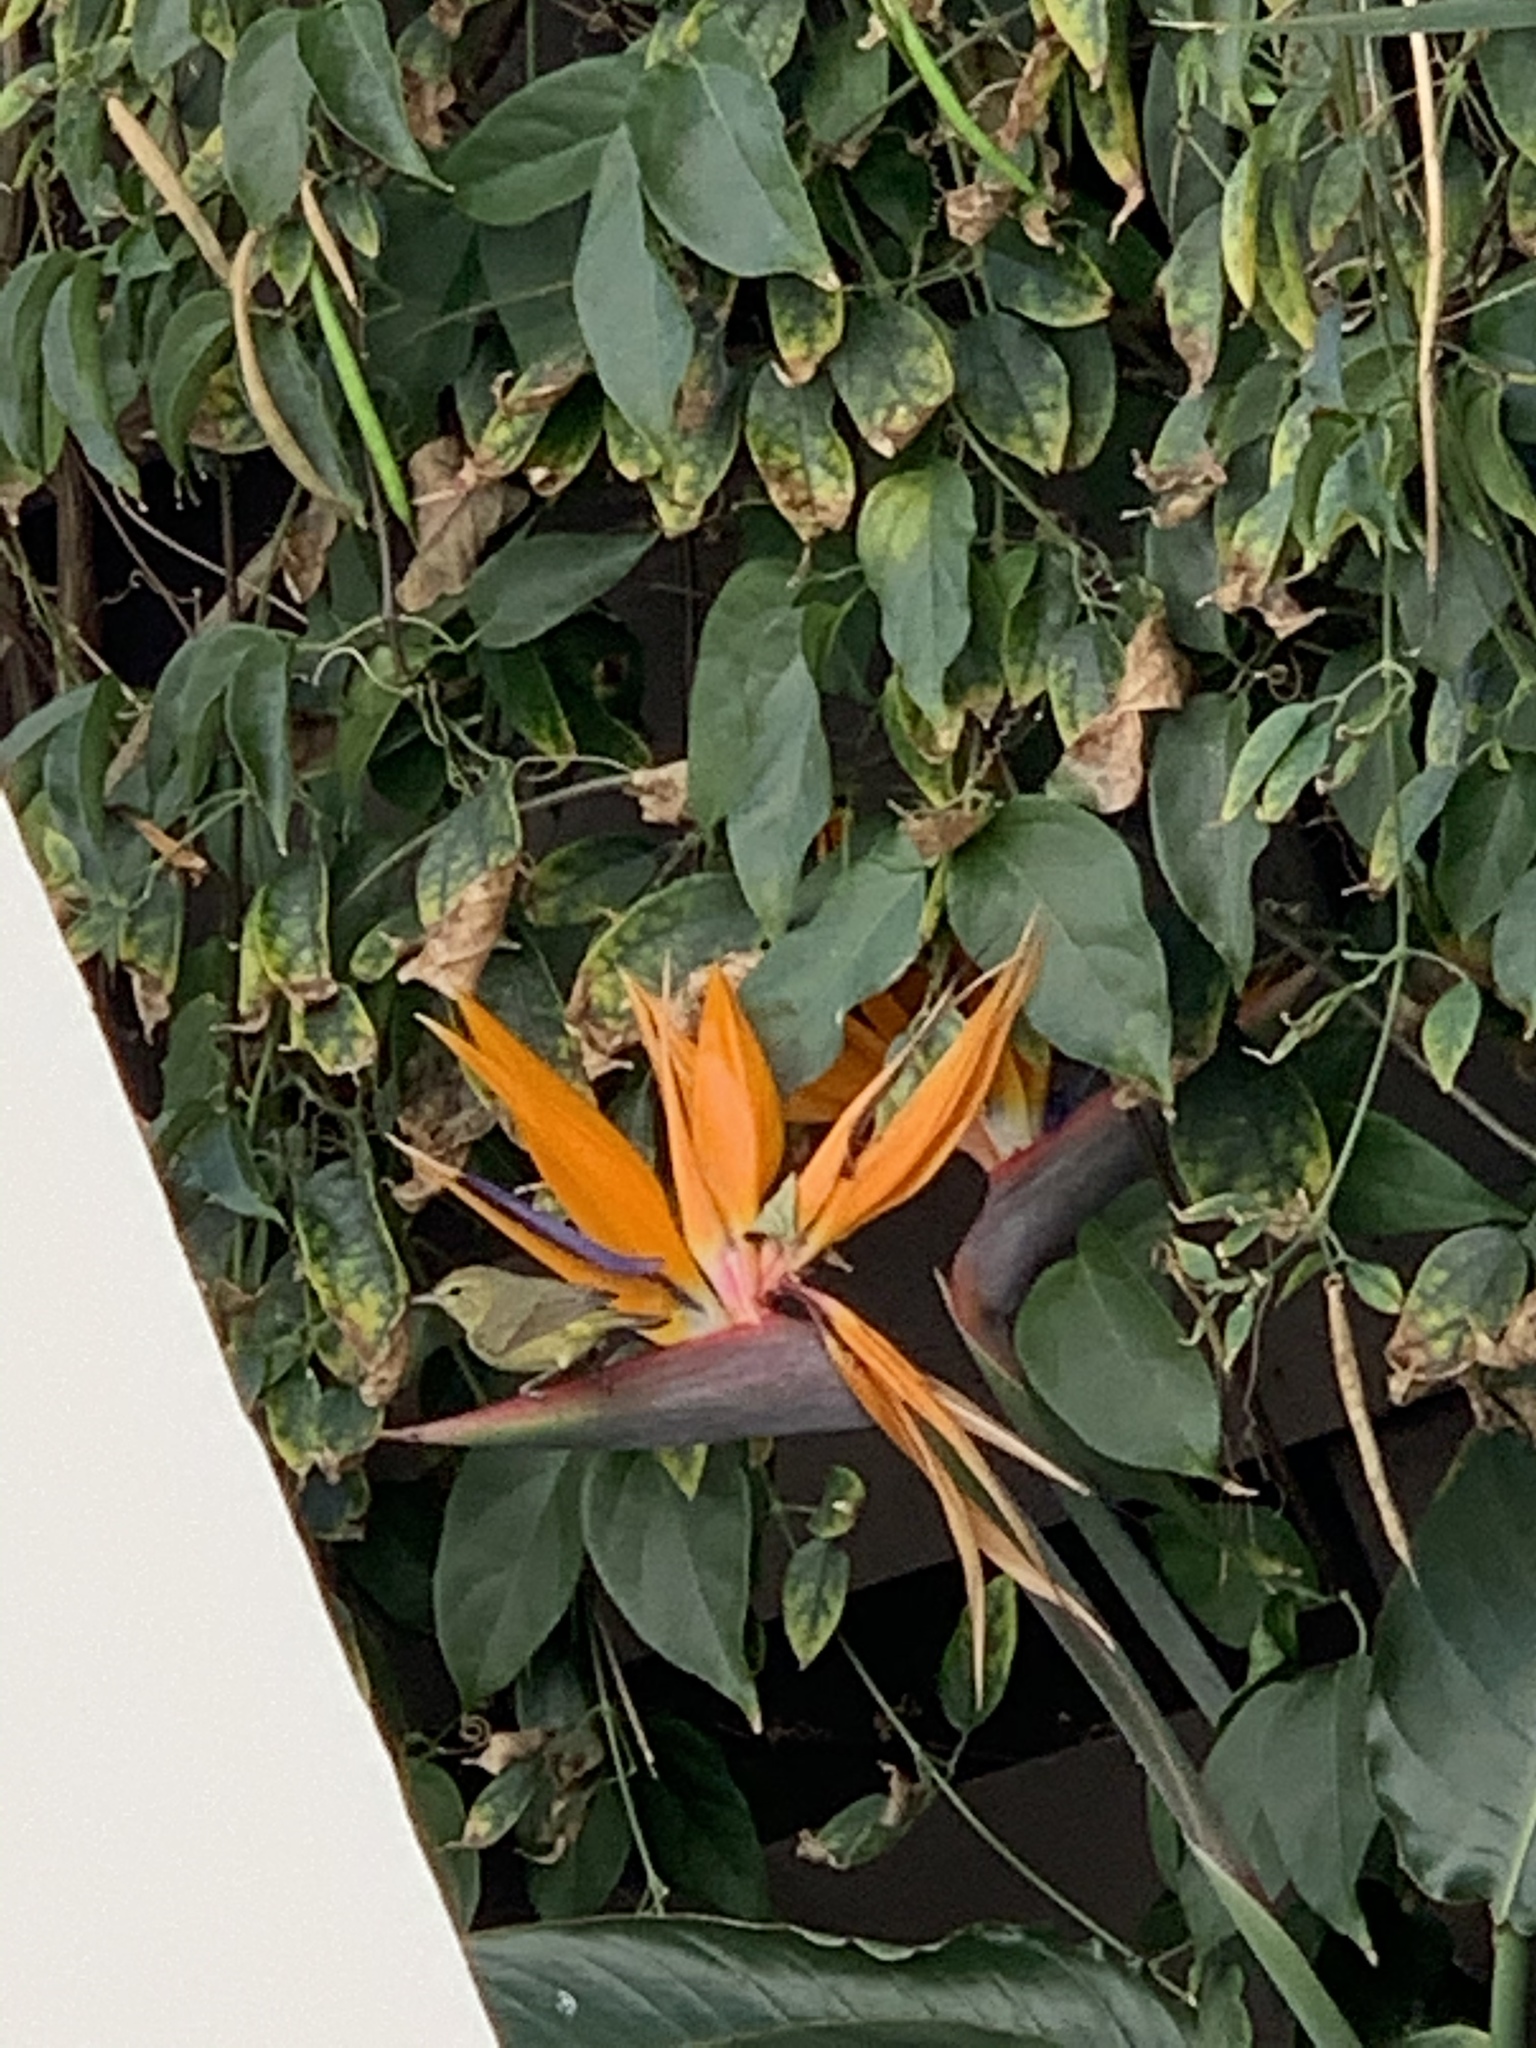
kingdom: Animalia
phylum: Chordata
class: Aves
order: Passeriformes
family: Parulidae
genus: Leiothlypis
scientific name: Leiothlypis celata
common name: Orange-crowned warbler
